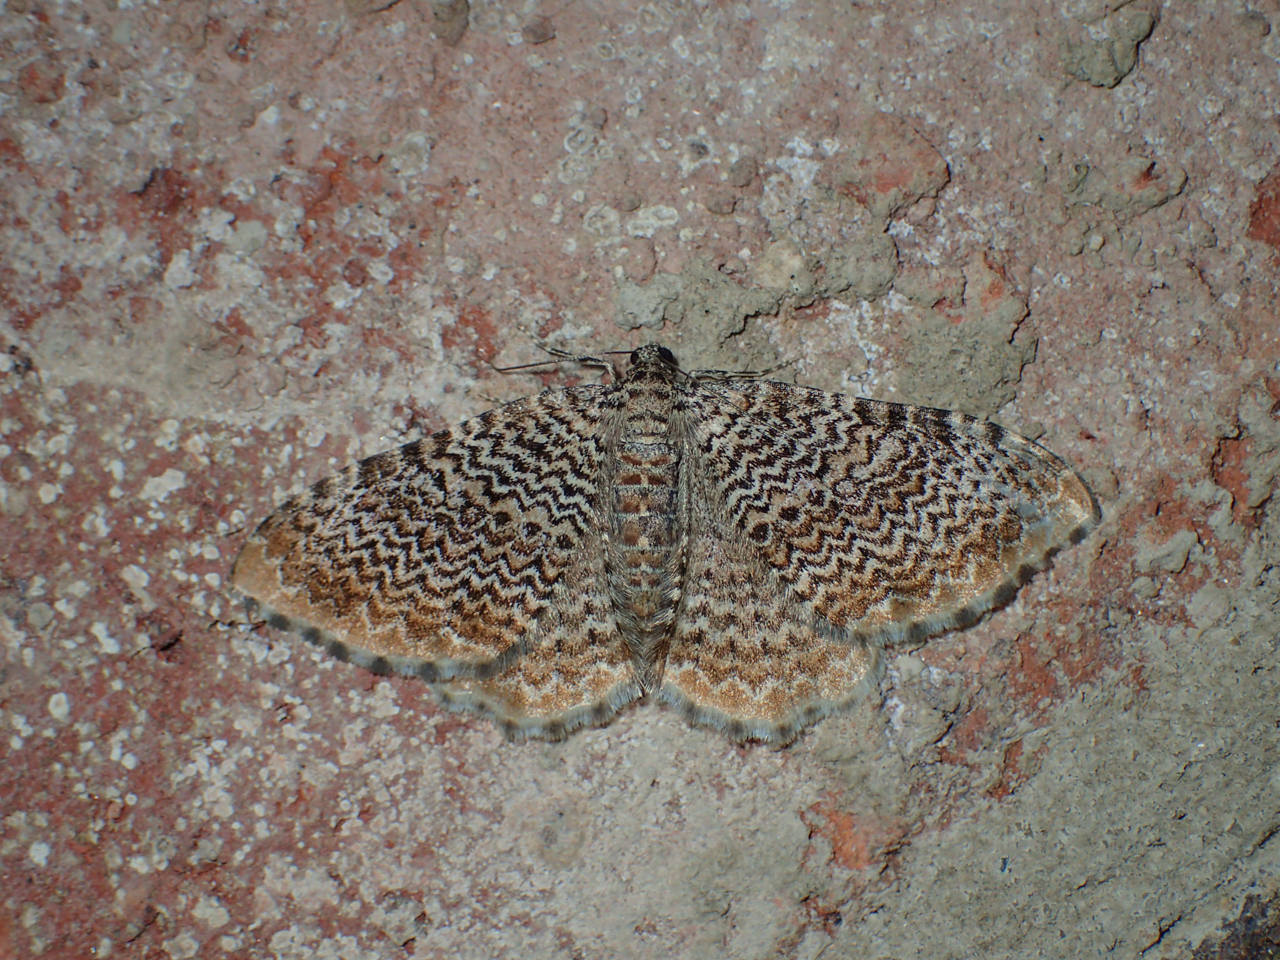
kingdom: Animalia
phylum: Arthropoda
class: Insecta
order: Lepidoptera
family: Geometridae
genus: Rheumaptera
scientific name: Rheumaptera prunivorata
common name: Cherry scallop shell moth
